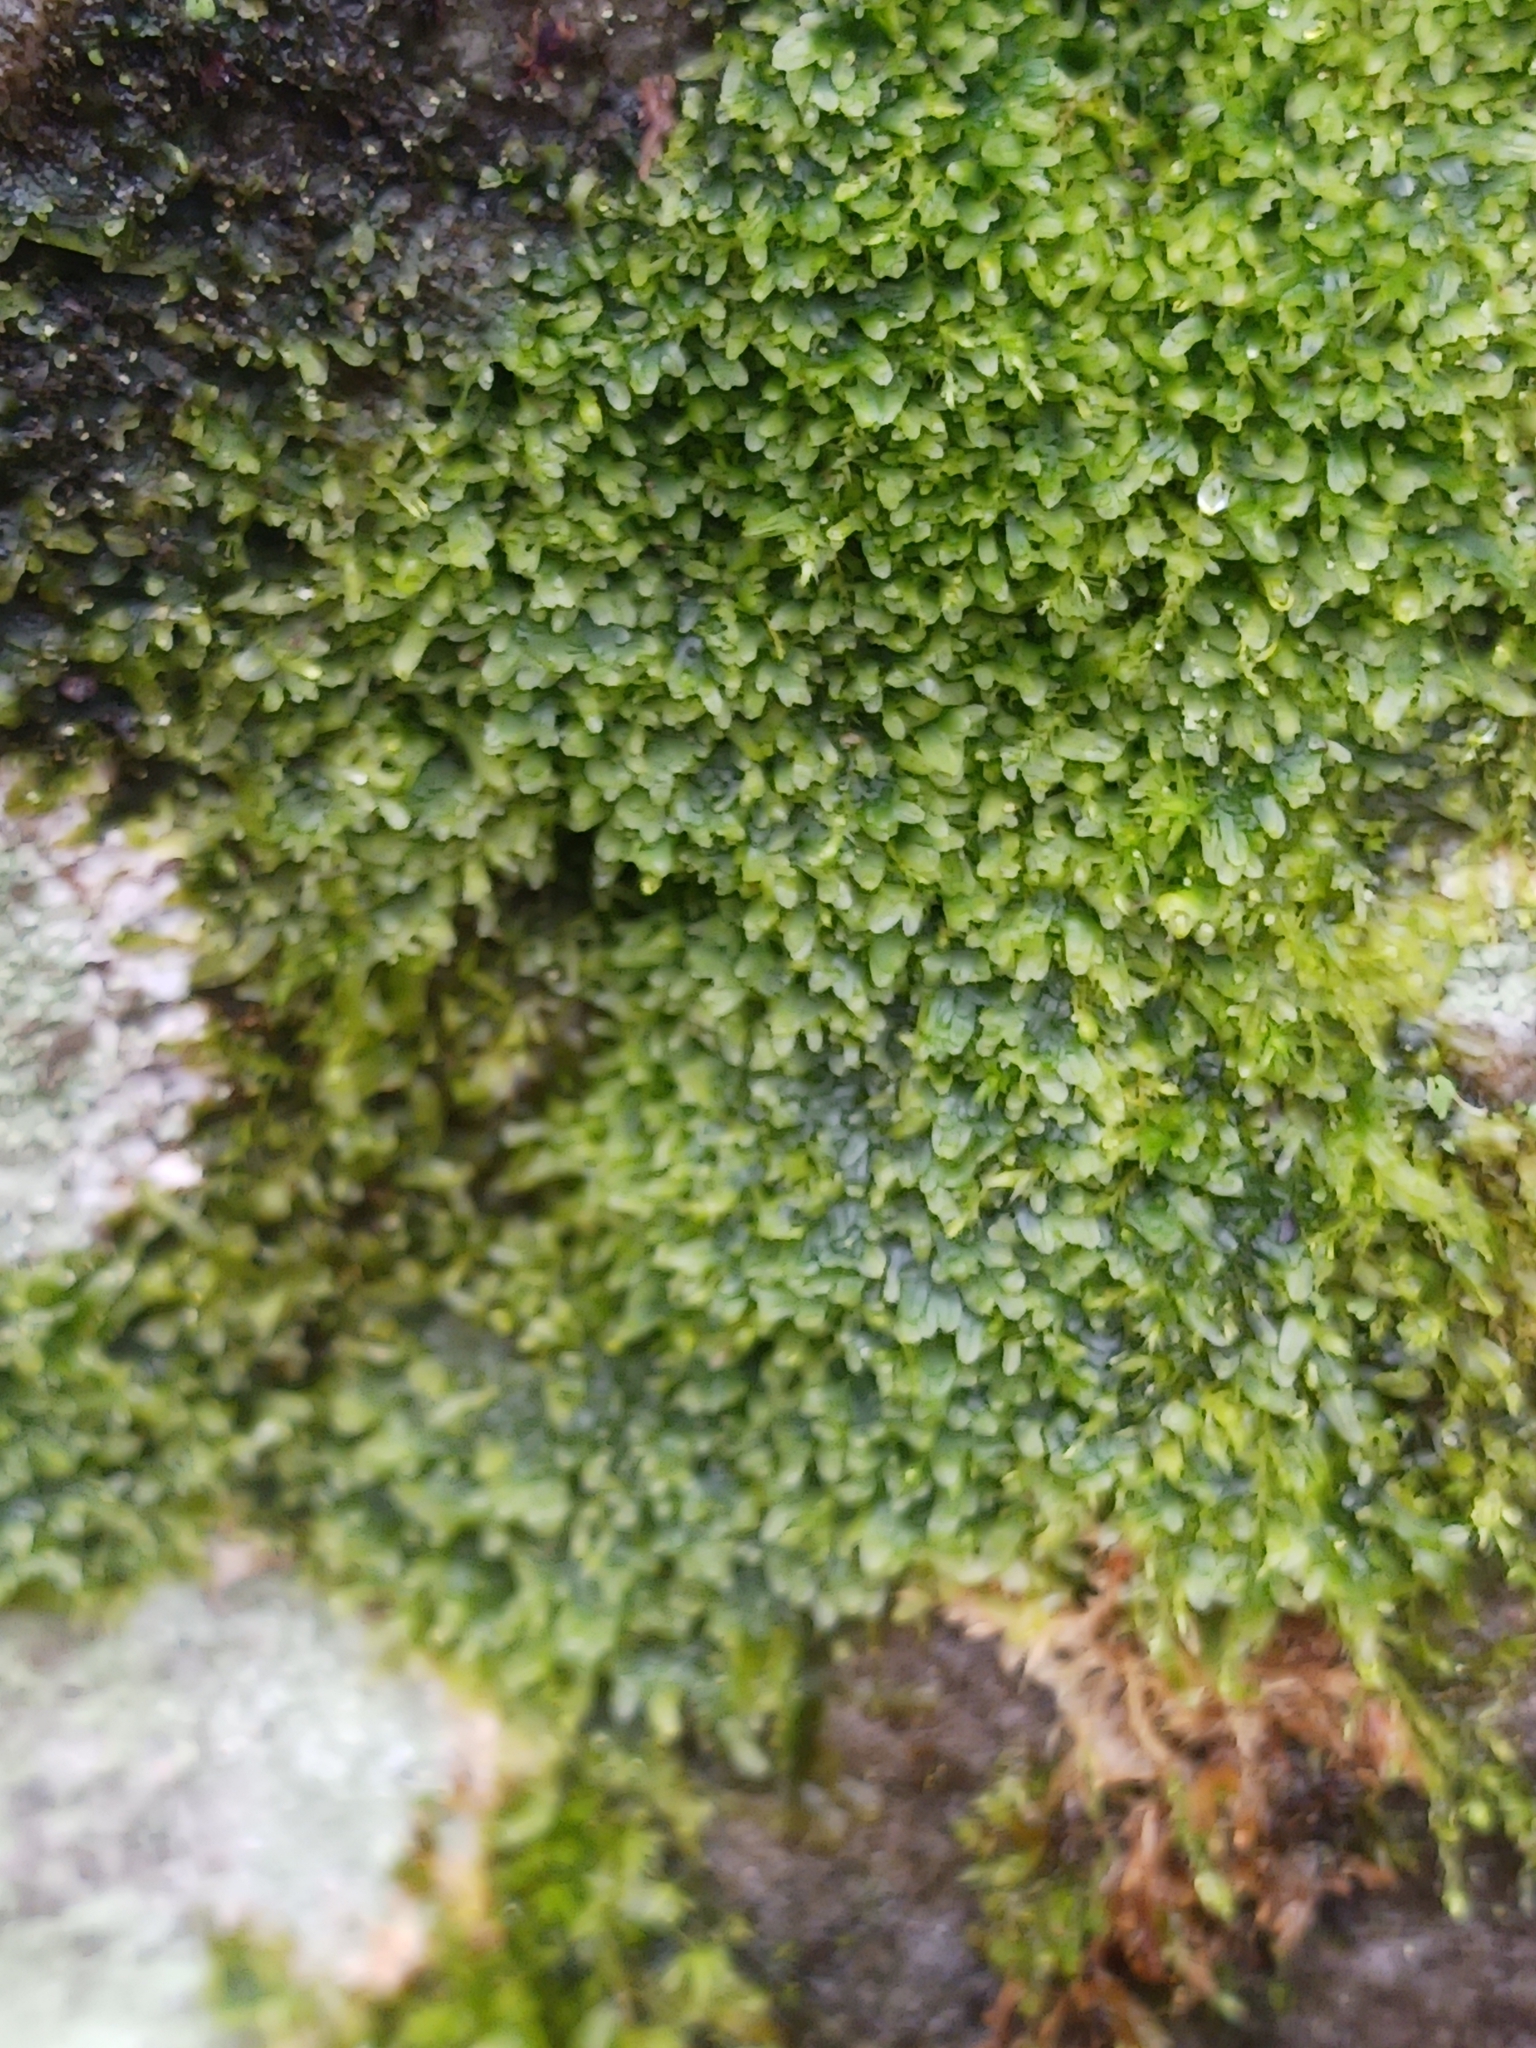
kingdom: Plantae
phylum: Marchantiophyta
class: Jungermanniopsida
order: Metzgeriales
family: Metzgeriaceae
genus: Metzgeria
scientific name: Metzgeria furcata
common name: Forked veilwort
